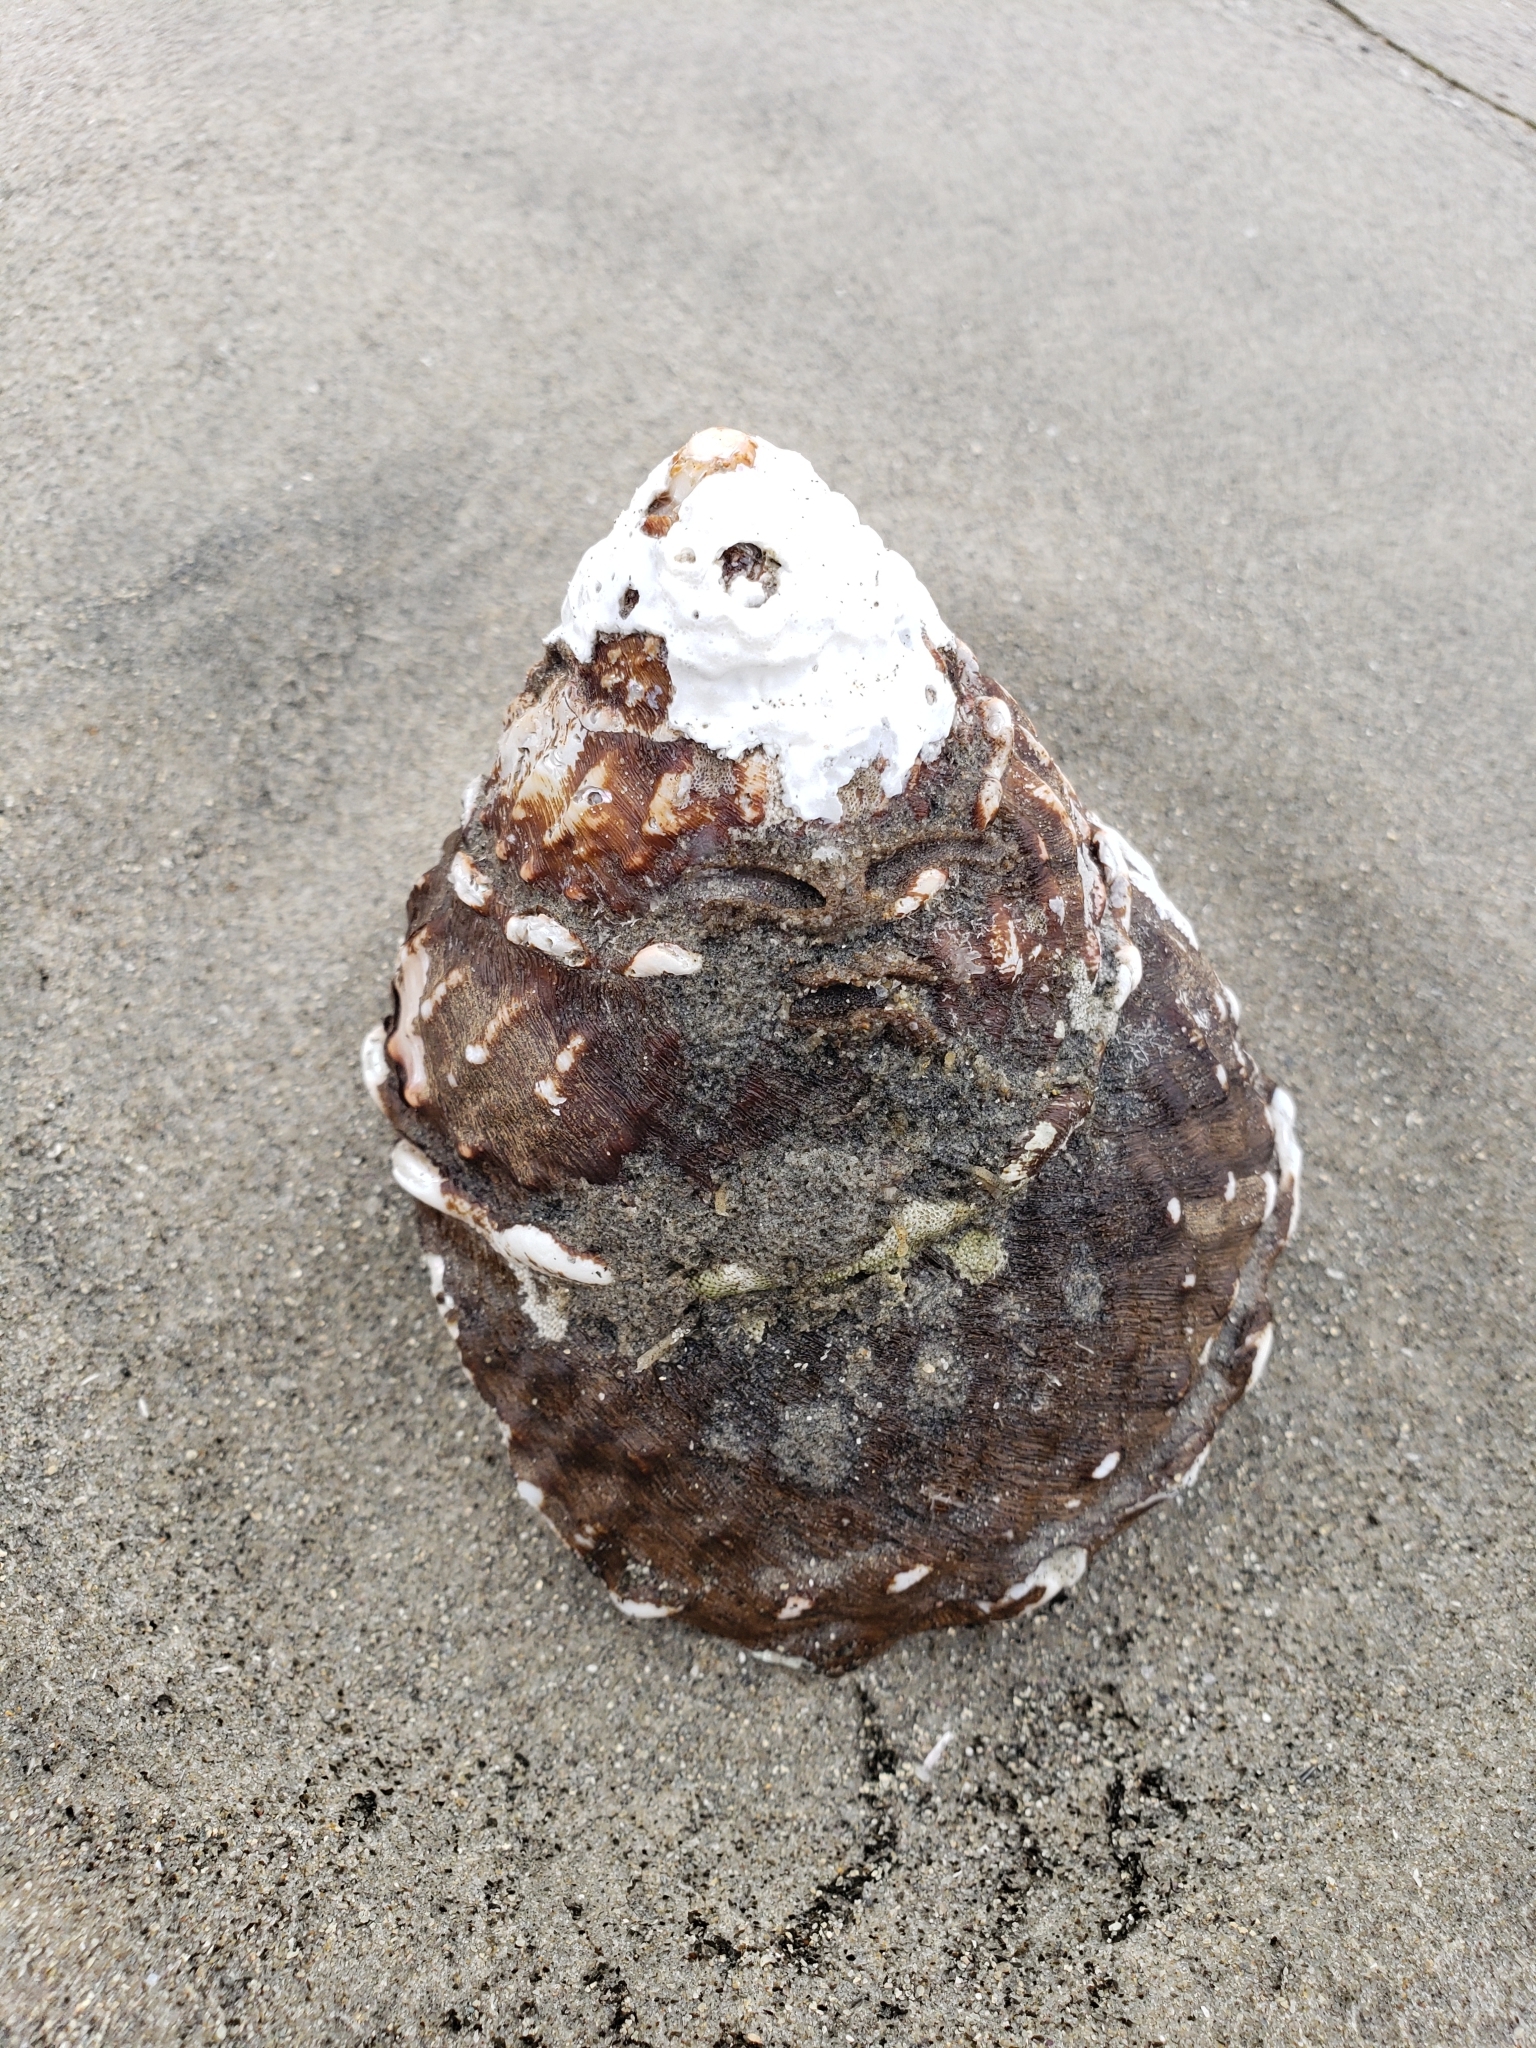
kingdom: Animalia
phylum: Mollusca
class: Gastropoda
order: Trochida
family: Turbinidae
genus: Megastraea
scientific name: Megastraea undosa
